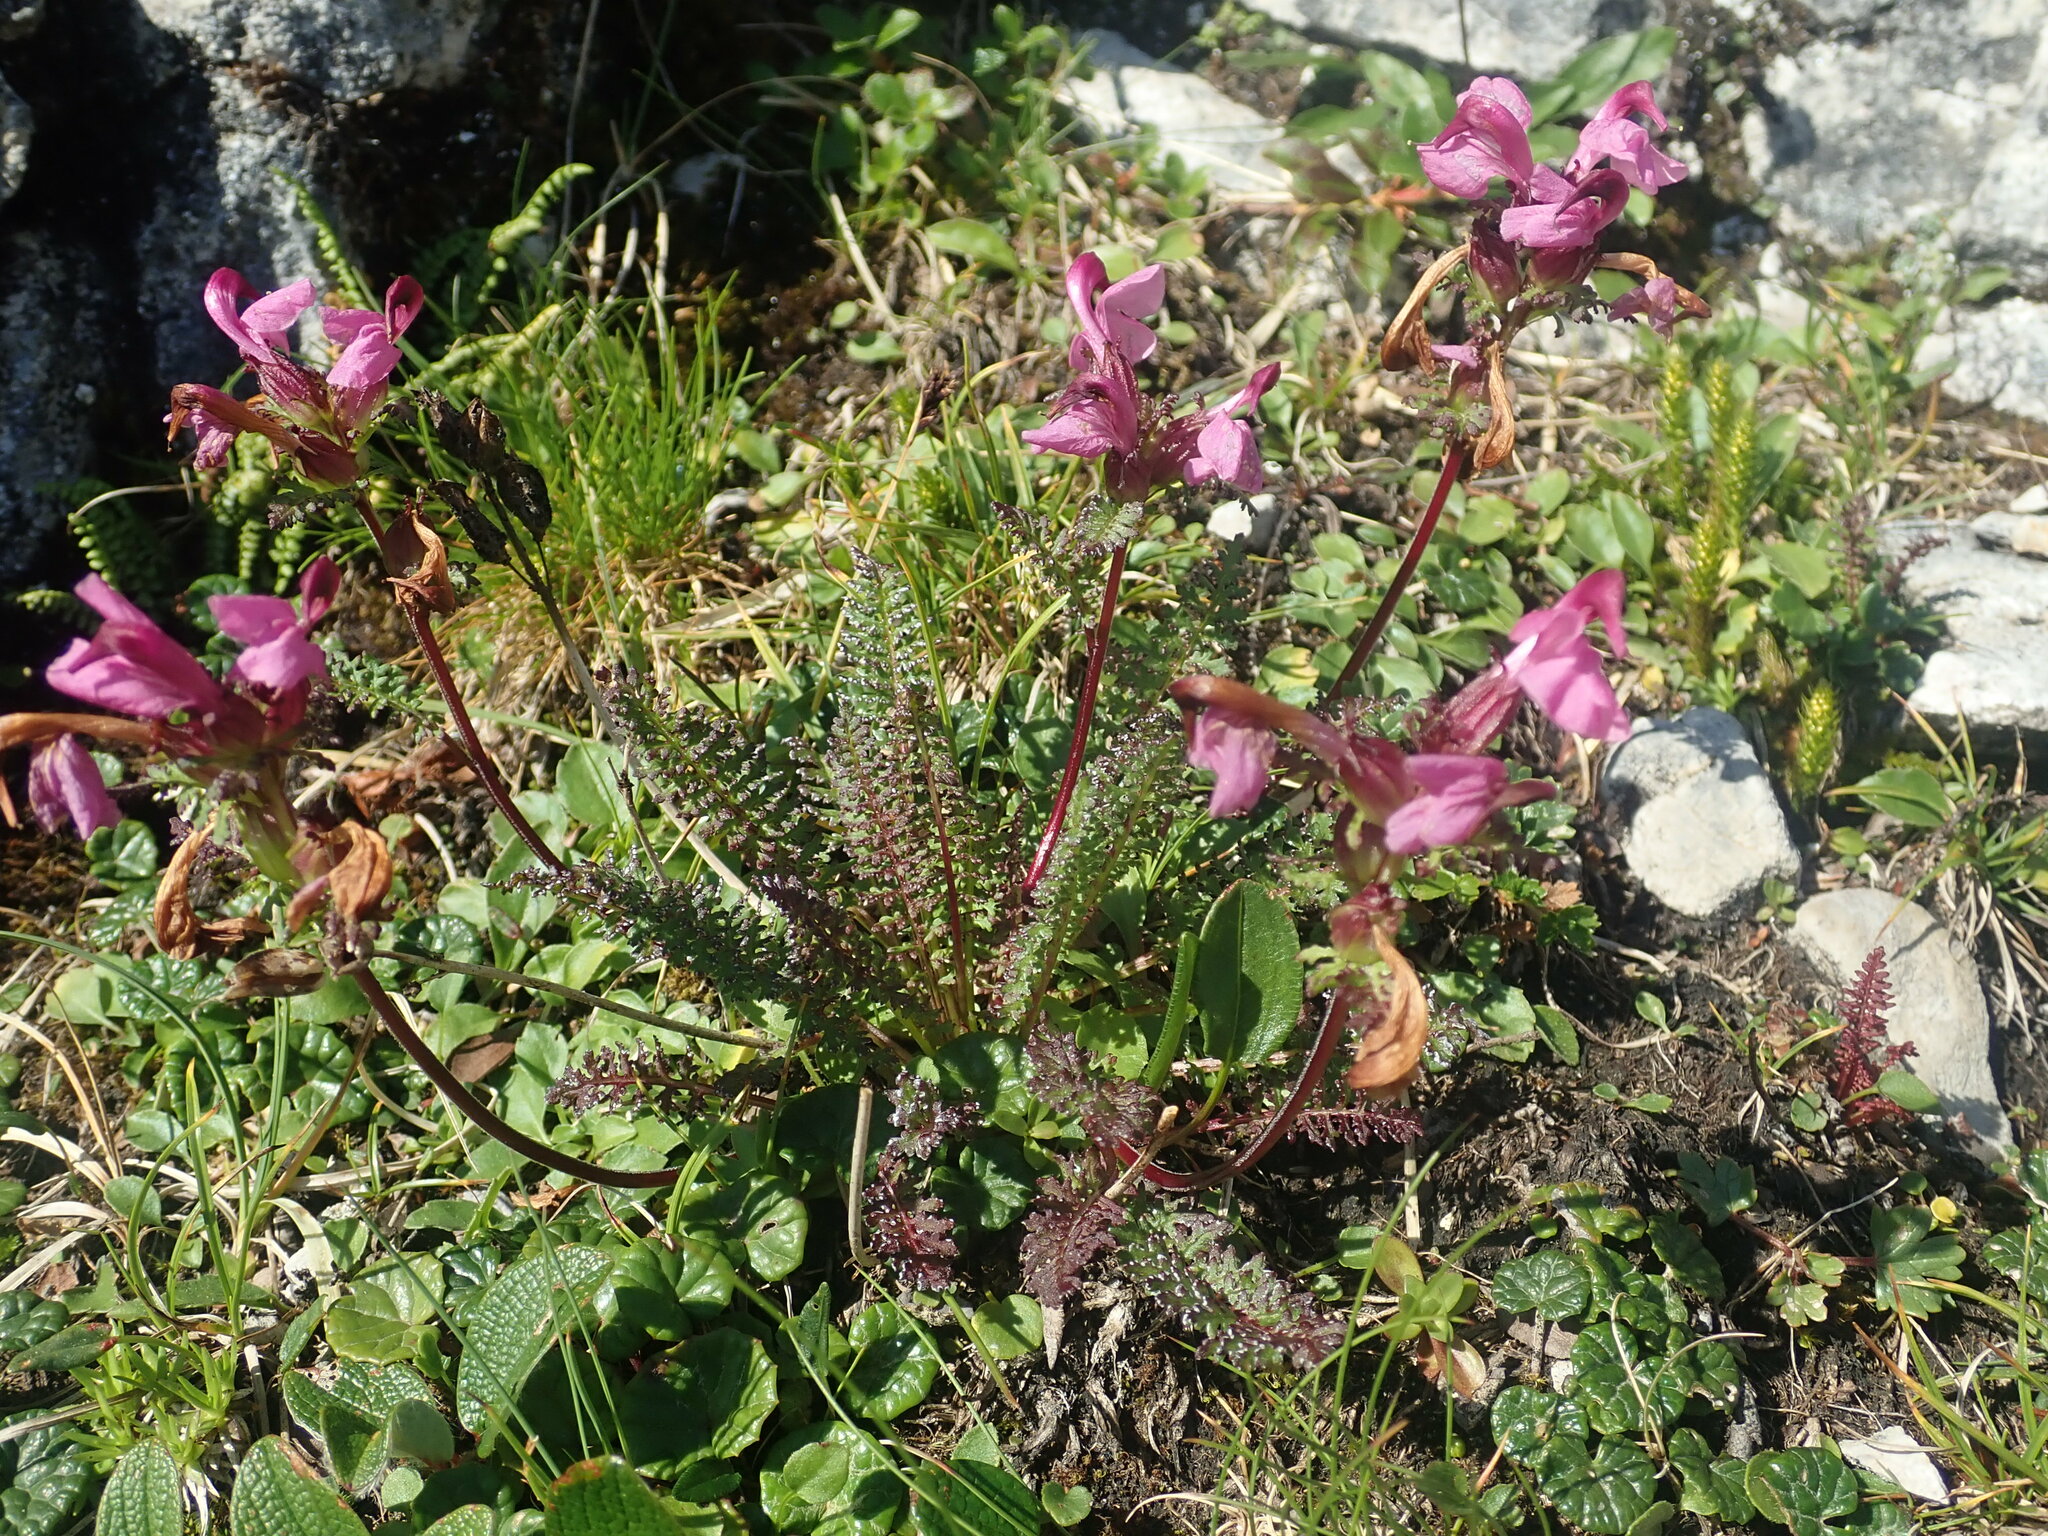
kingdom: Plantae
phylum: Tracheophyta
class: Magnoliopsida
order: Lamiales
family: Orobanchaceae
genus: Pedicularis
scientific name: Pedicularis rostratocapitata
